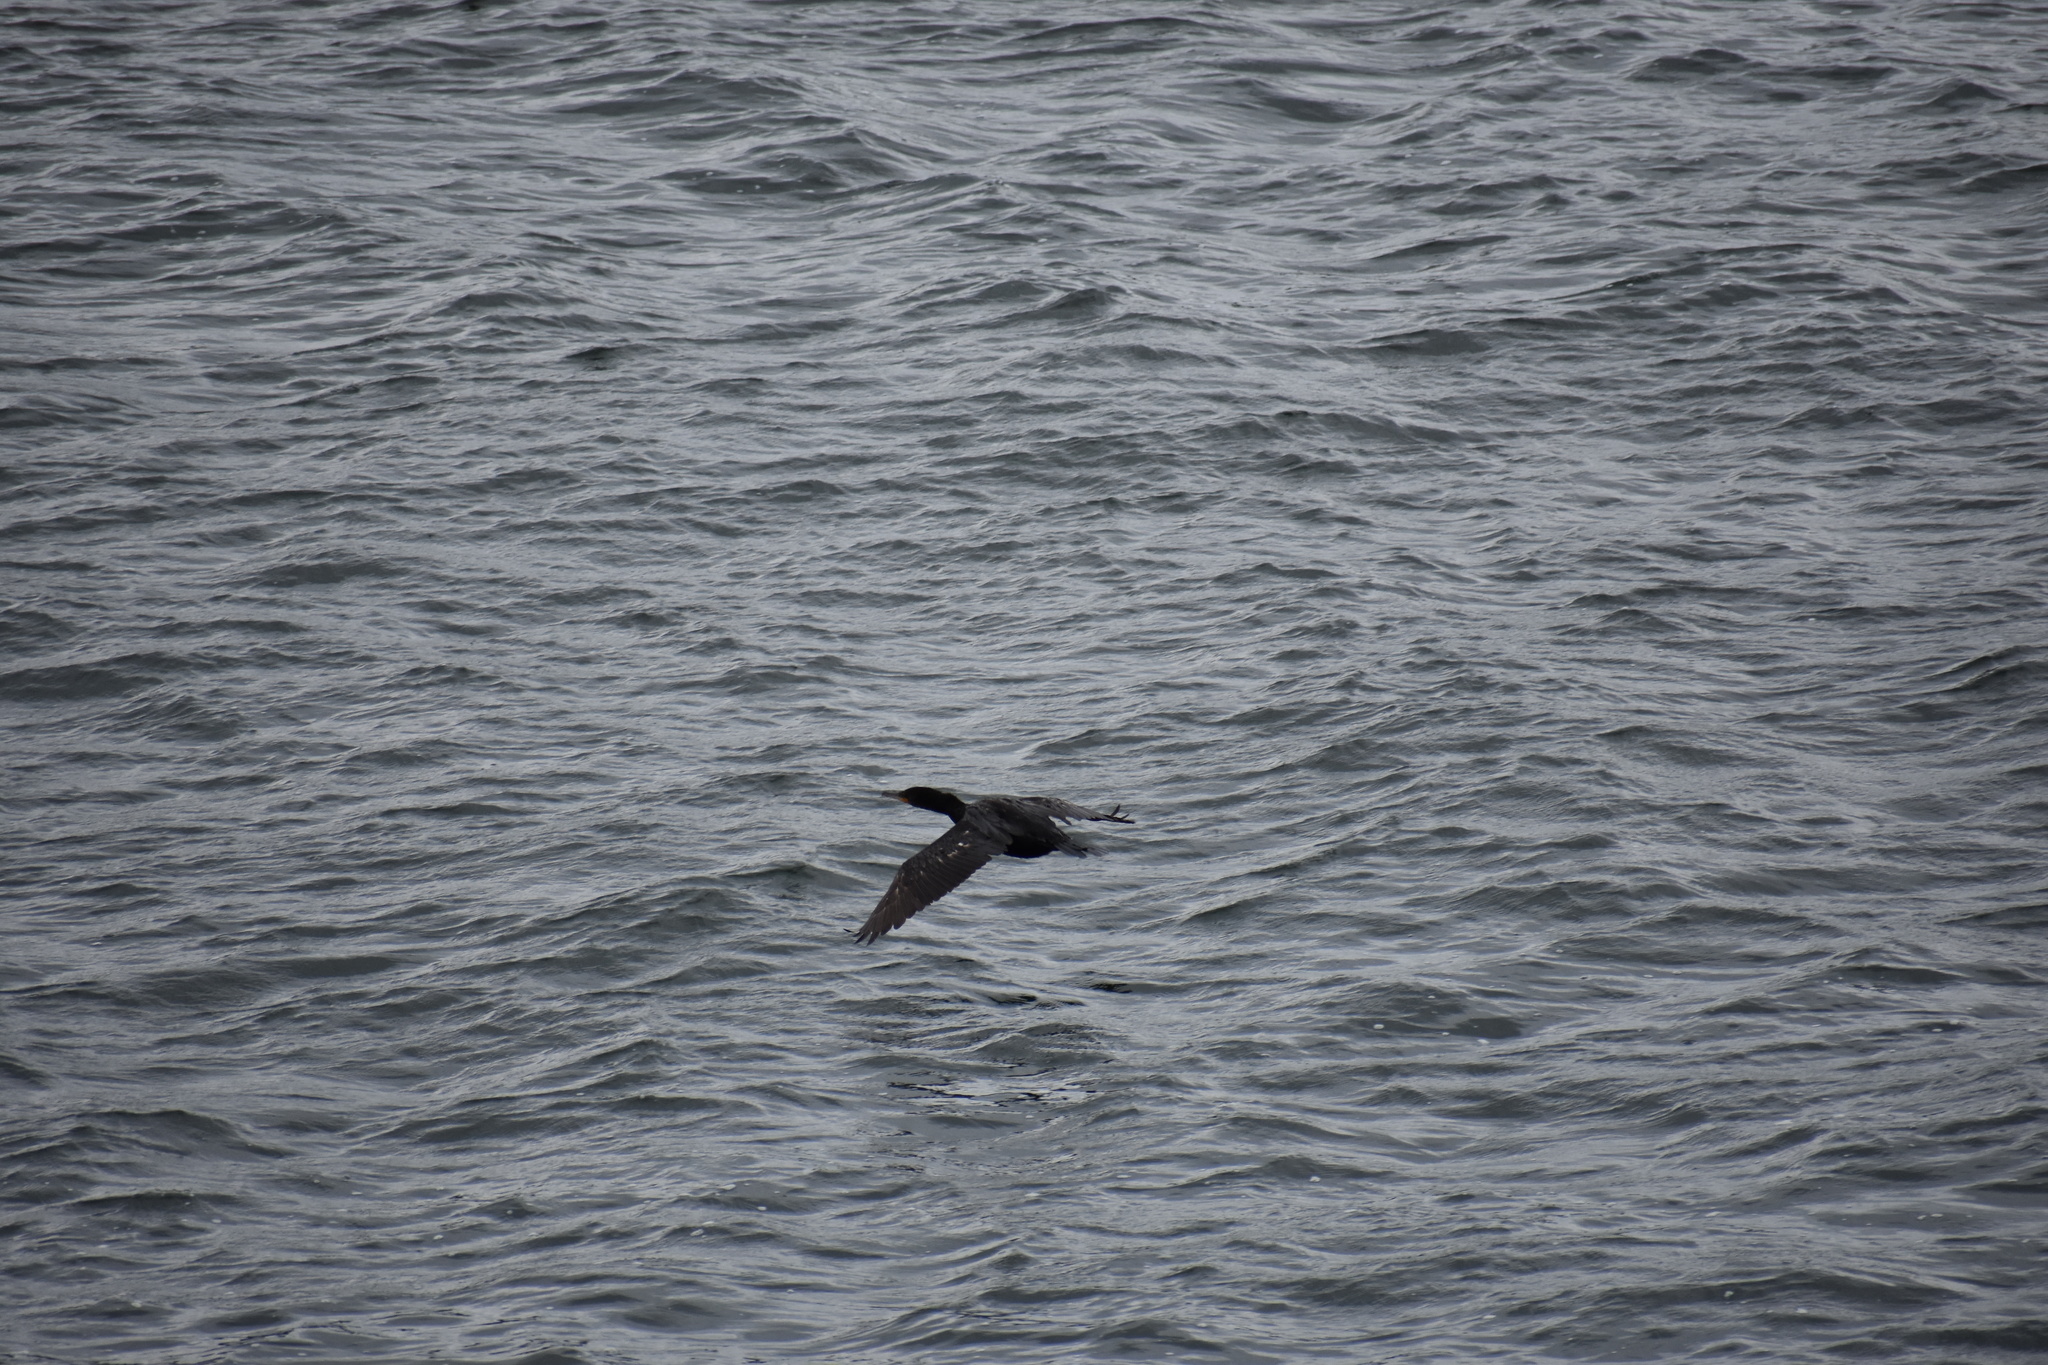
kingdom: Animalia
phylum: Chordata
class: Aves
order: Suliformes
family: Phalacrocoracidae
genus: Phalacrocorax
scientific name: Phalacrocorax auritus
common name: Double-crested cormorant
